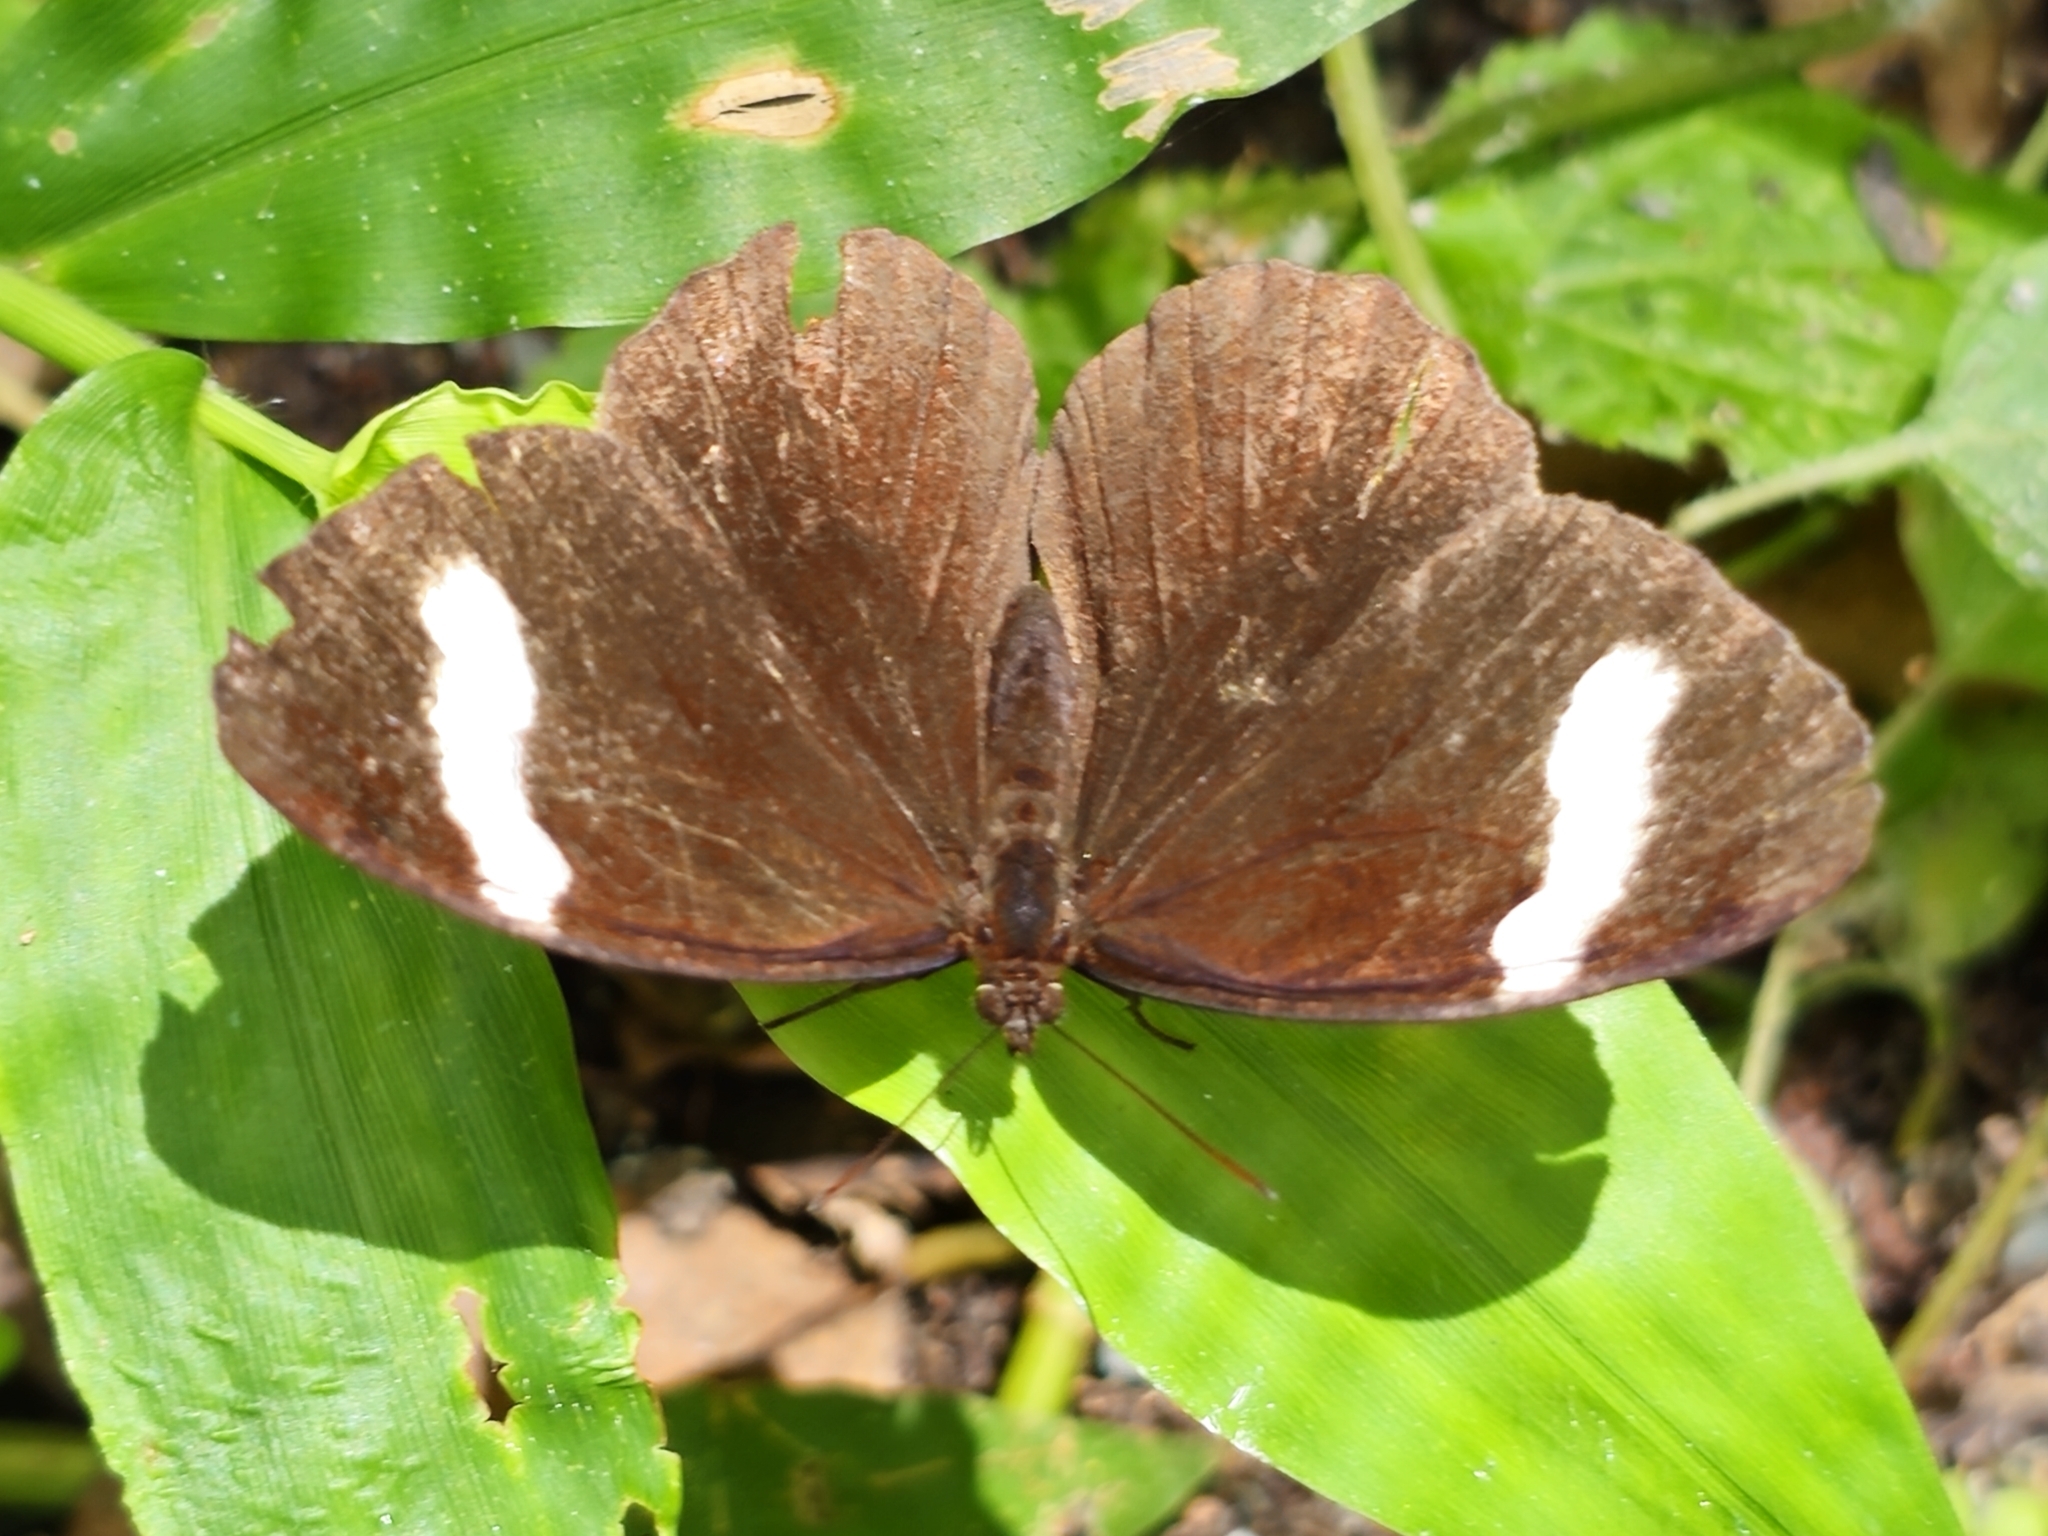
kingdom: Animalia
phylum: Arthropoda
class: Insecta
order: Lepidoptera
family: Nymphalidae
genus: Pedaliodes
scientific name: Pedaliodes porina
